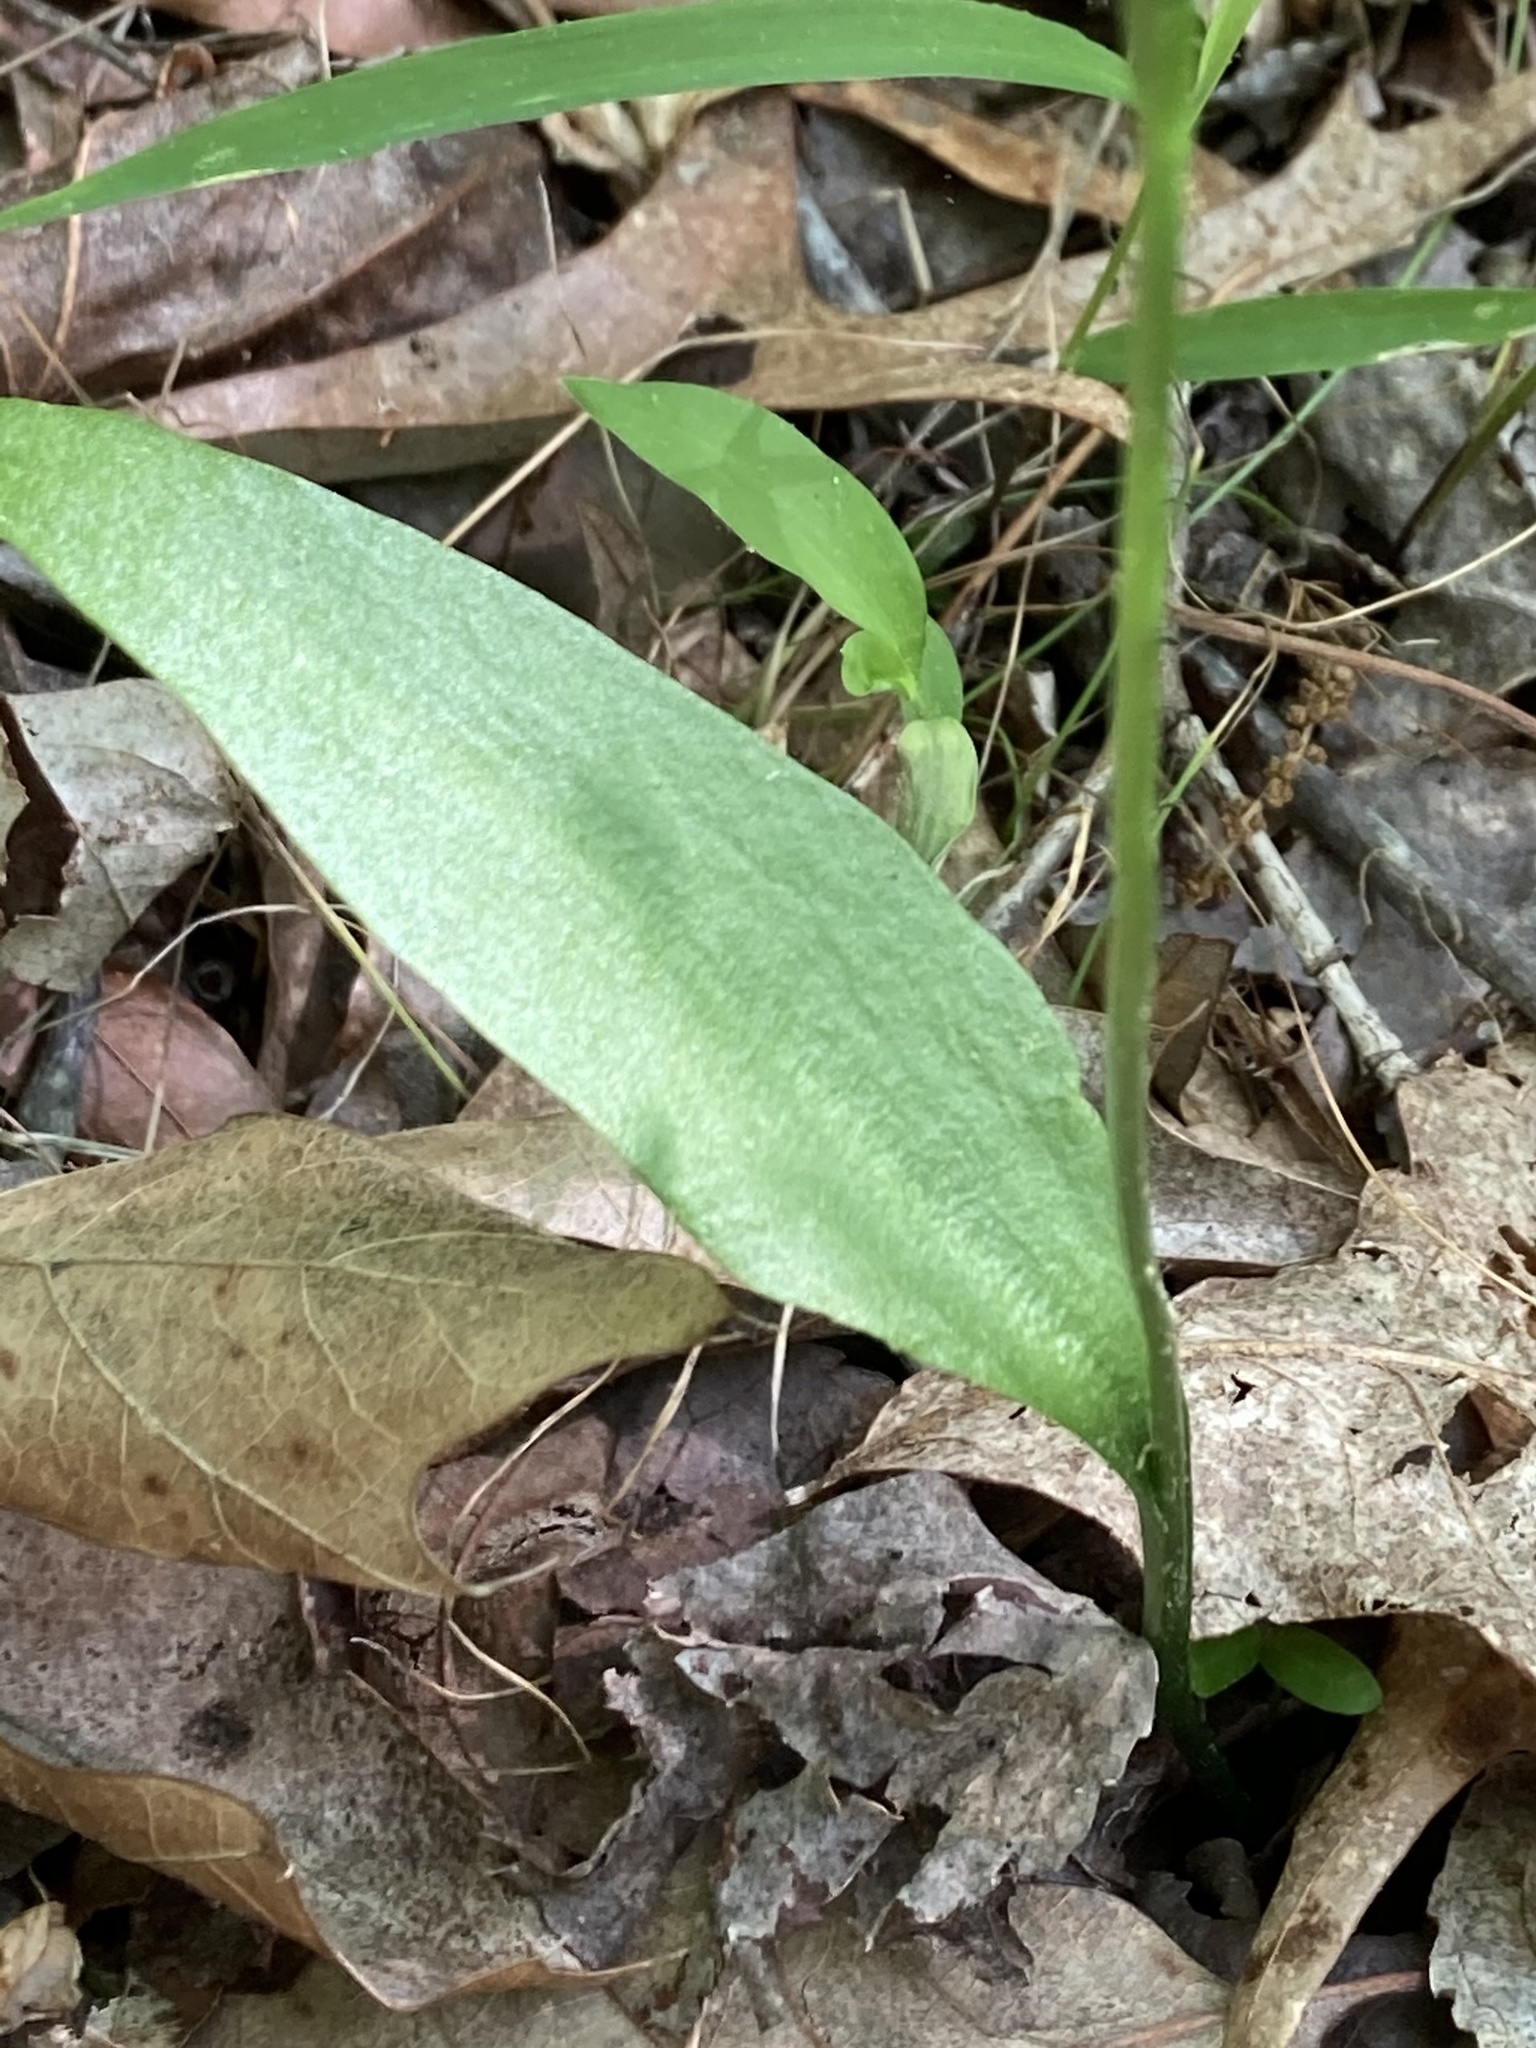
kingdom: Plantae
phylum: Tracheophyta
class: Polypodiopsida
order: Ophioglossales
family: Ophioglossaceae
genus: Ophioglossum
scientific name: Ophioglossum pusillum
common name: Northern adder's-tongue
